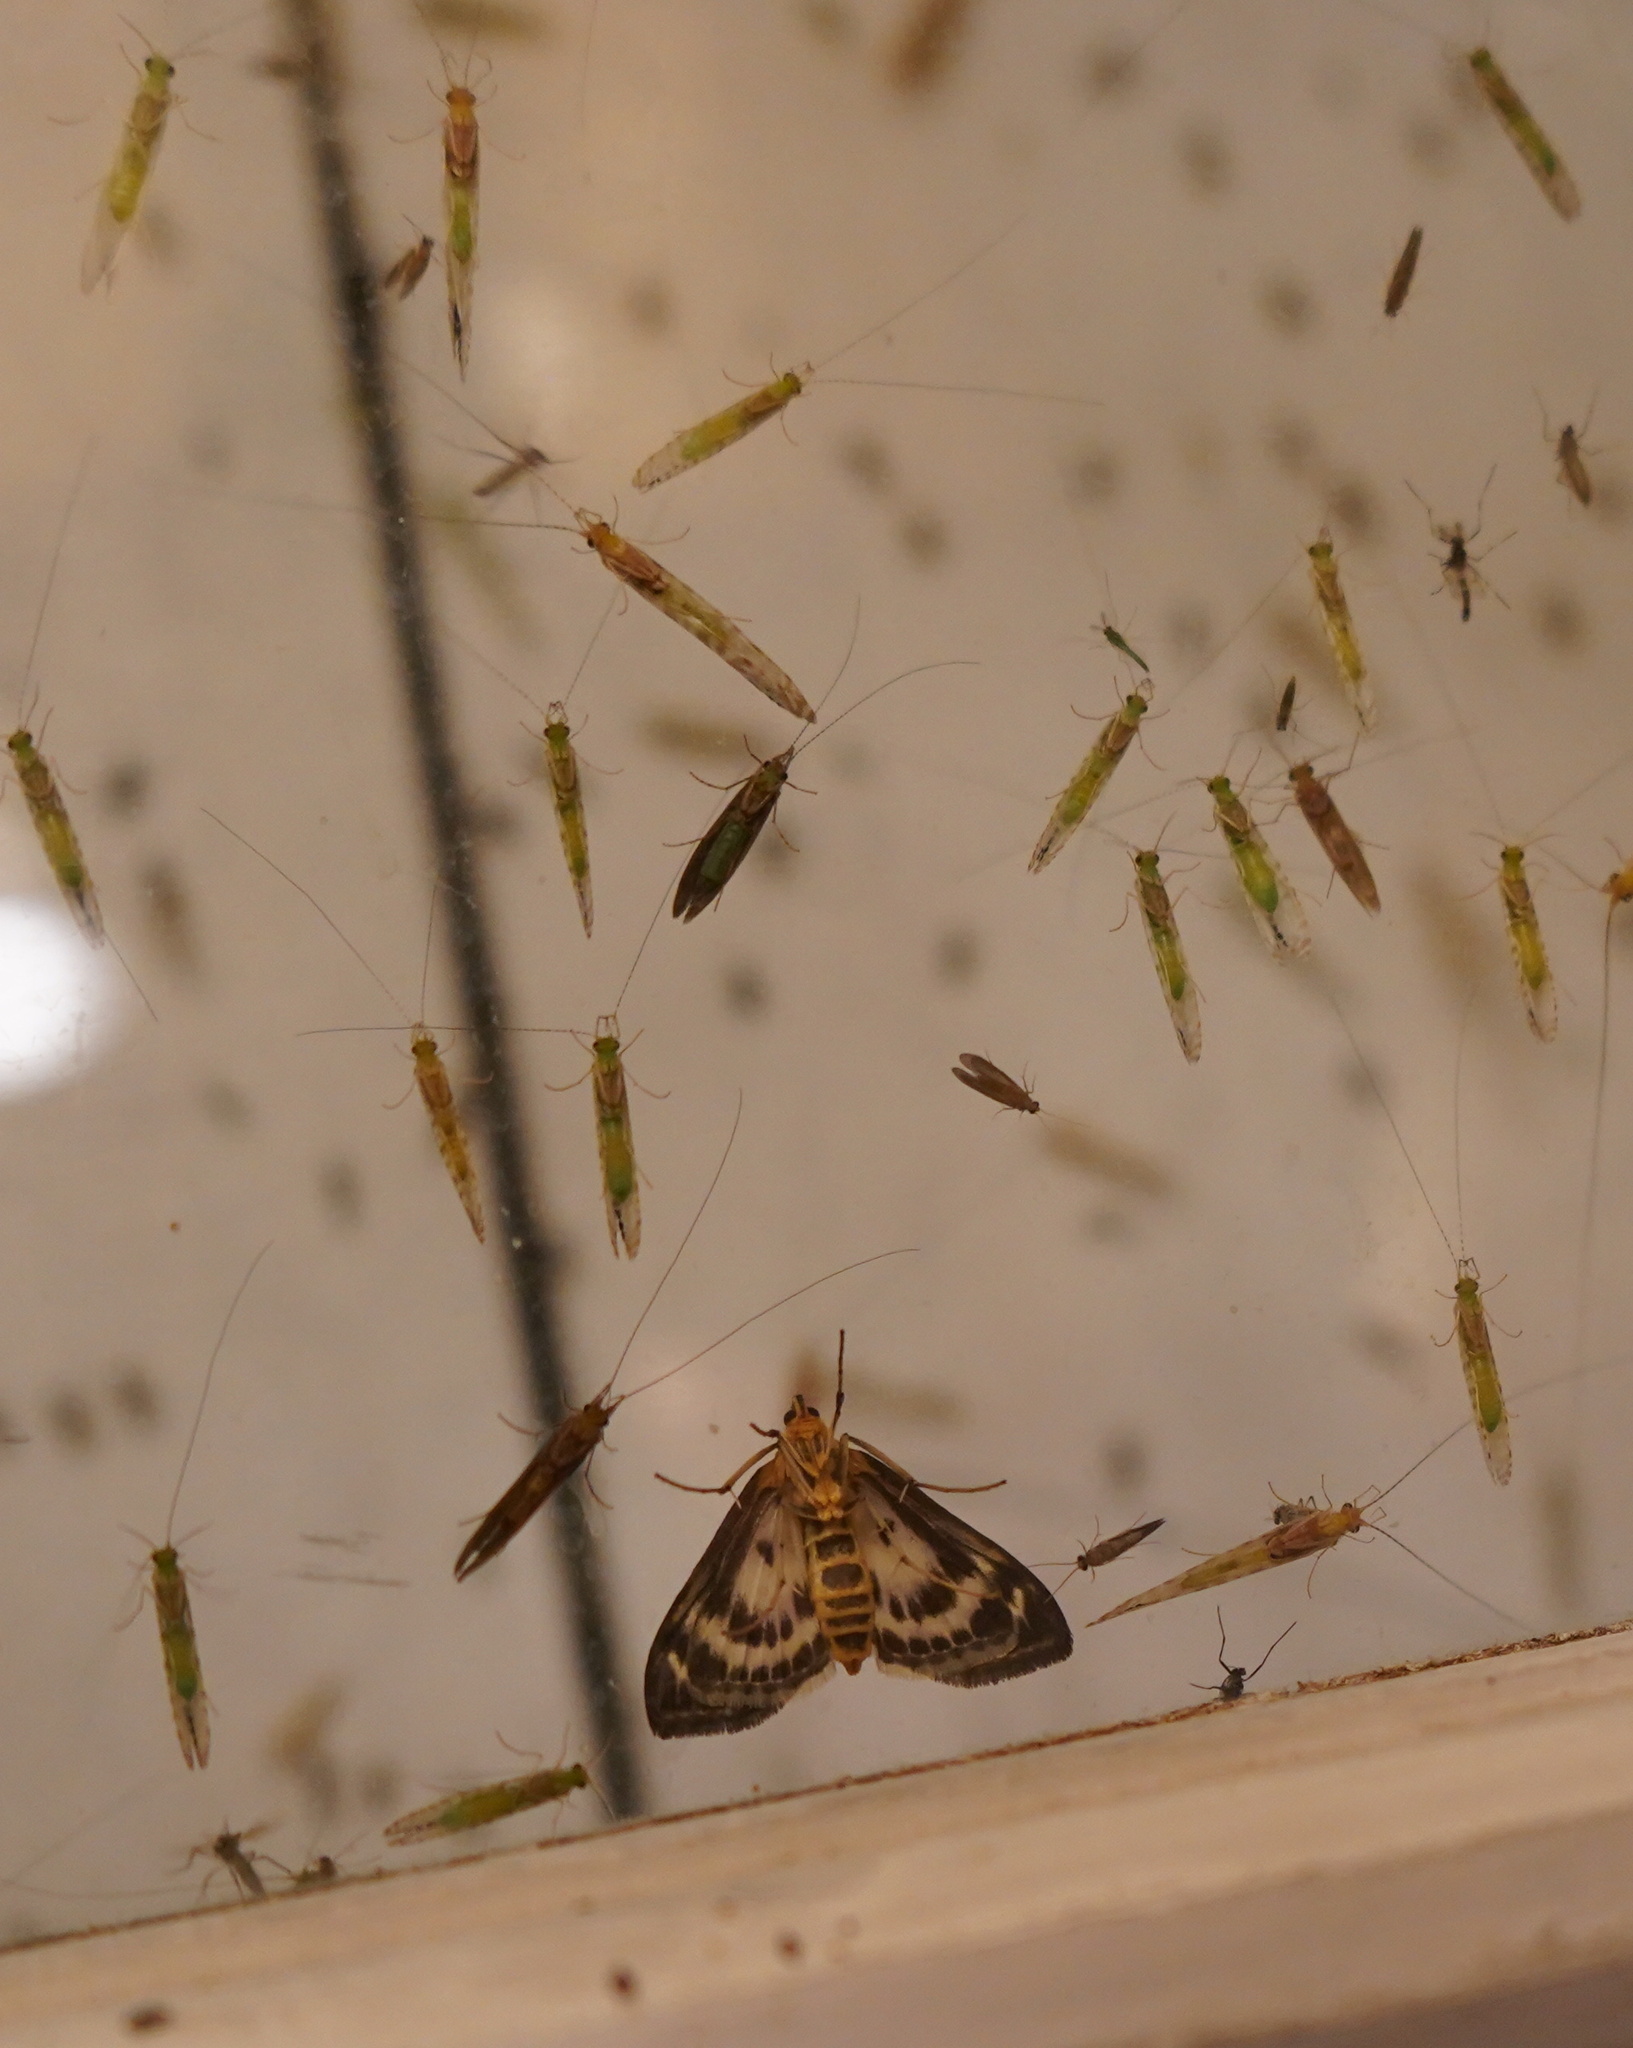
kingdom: Animalia
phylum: Arthropoda
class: Insecta
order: Lepidoptera
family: Crambidae
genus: Anania
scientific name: Anania hortulata
